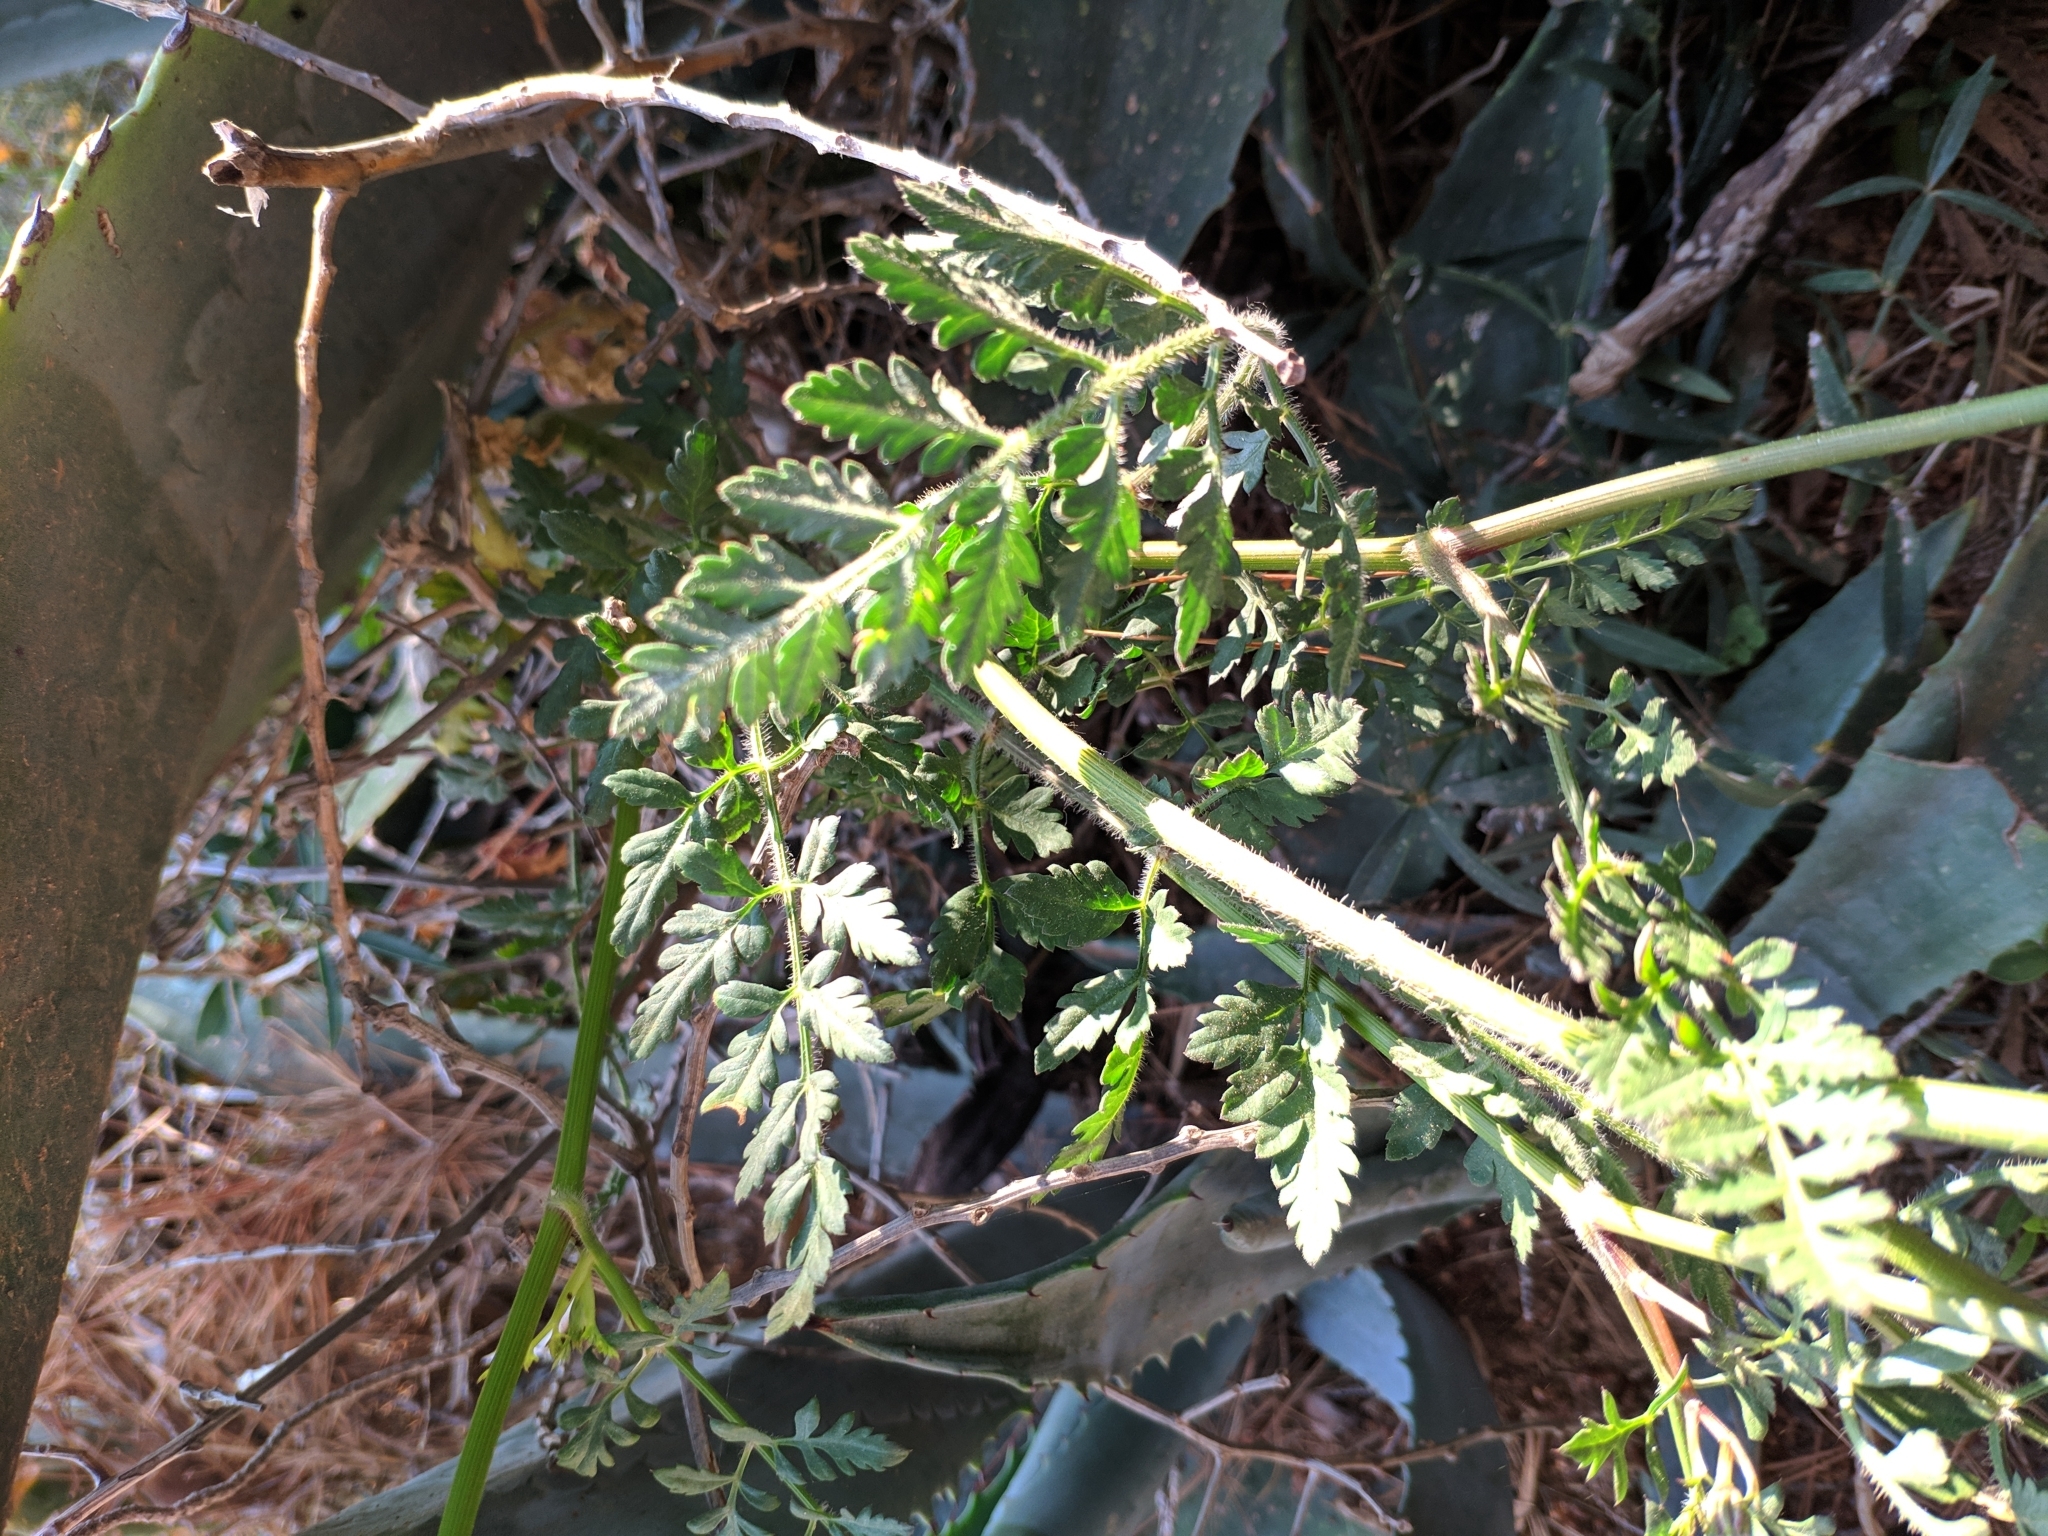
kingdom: Plantae
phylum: Tracheophyta
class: Magnoliopsida
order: Apiales
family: Apiaceae
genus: Daucus
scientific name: Daucus carota
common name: Wild carrot
